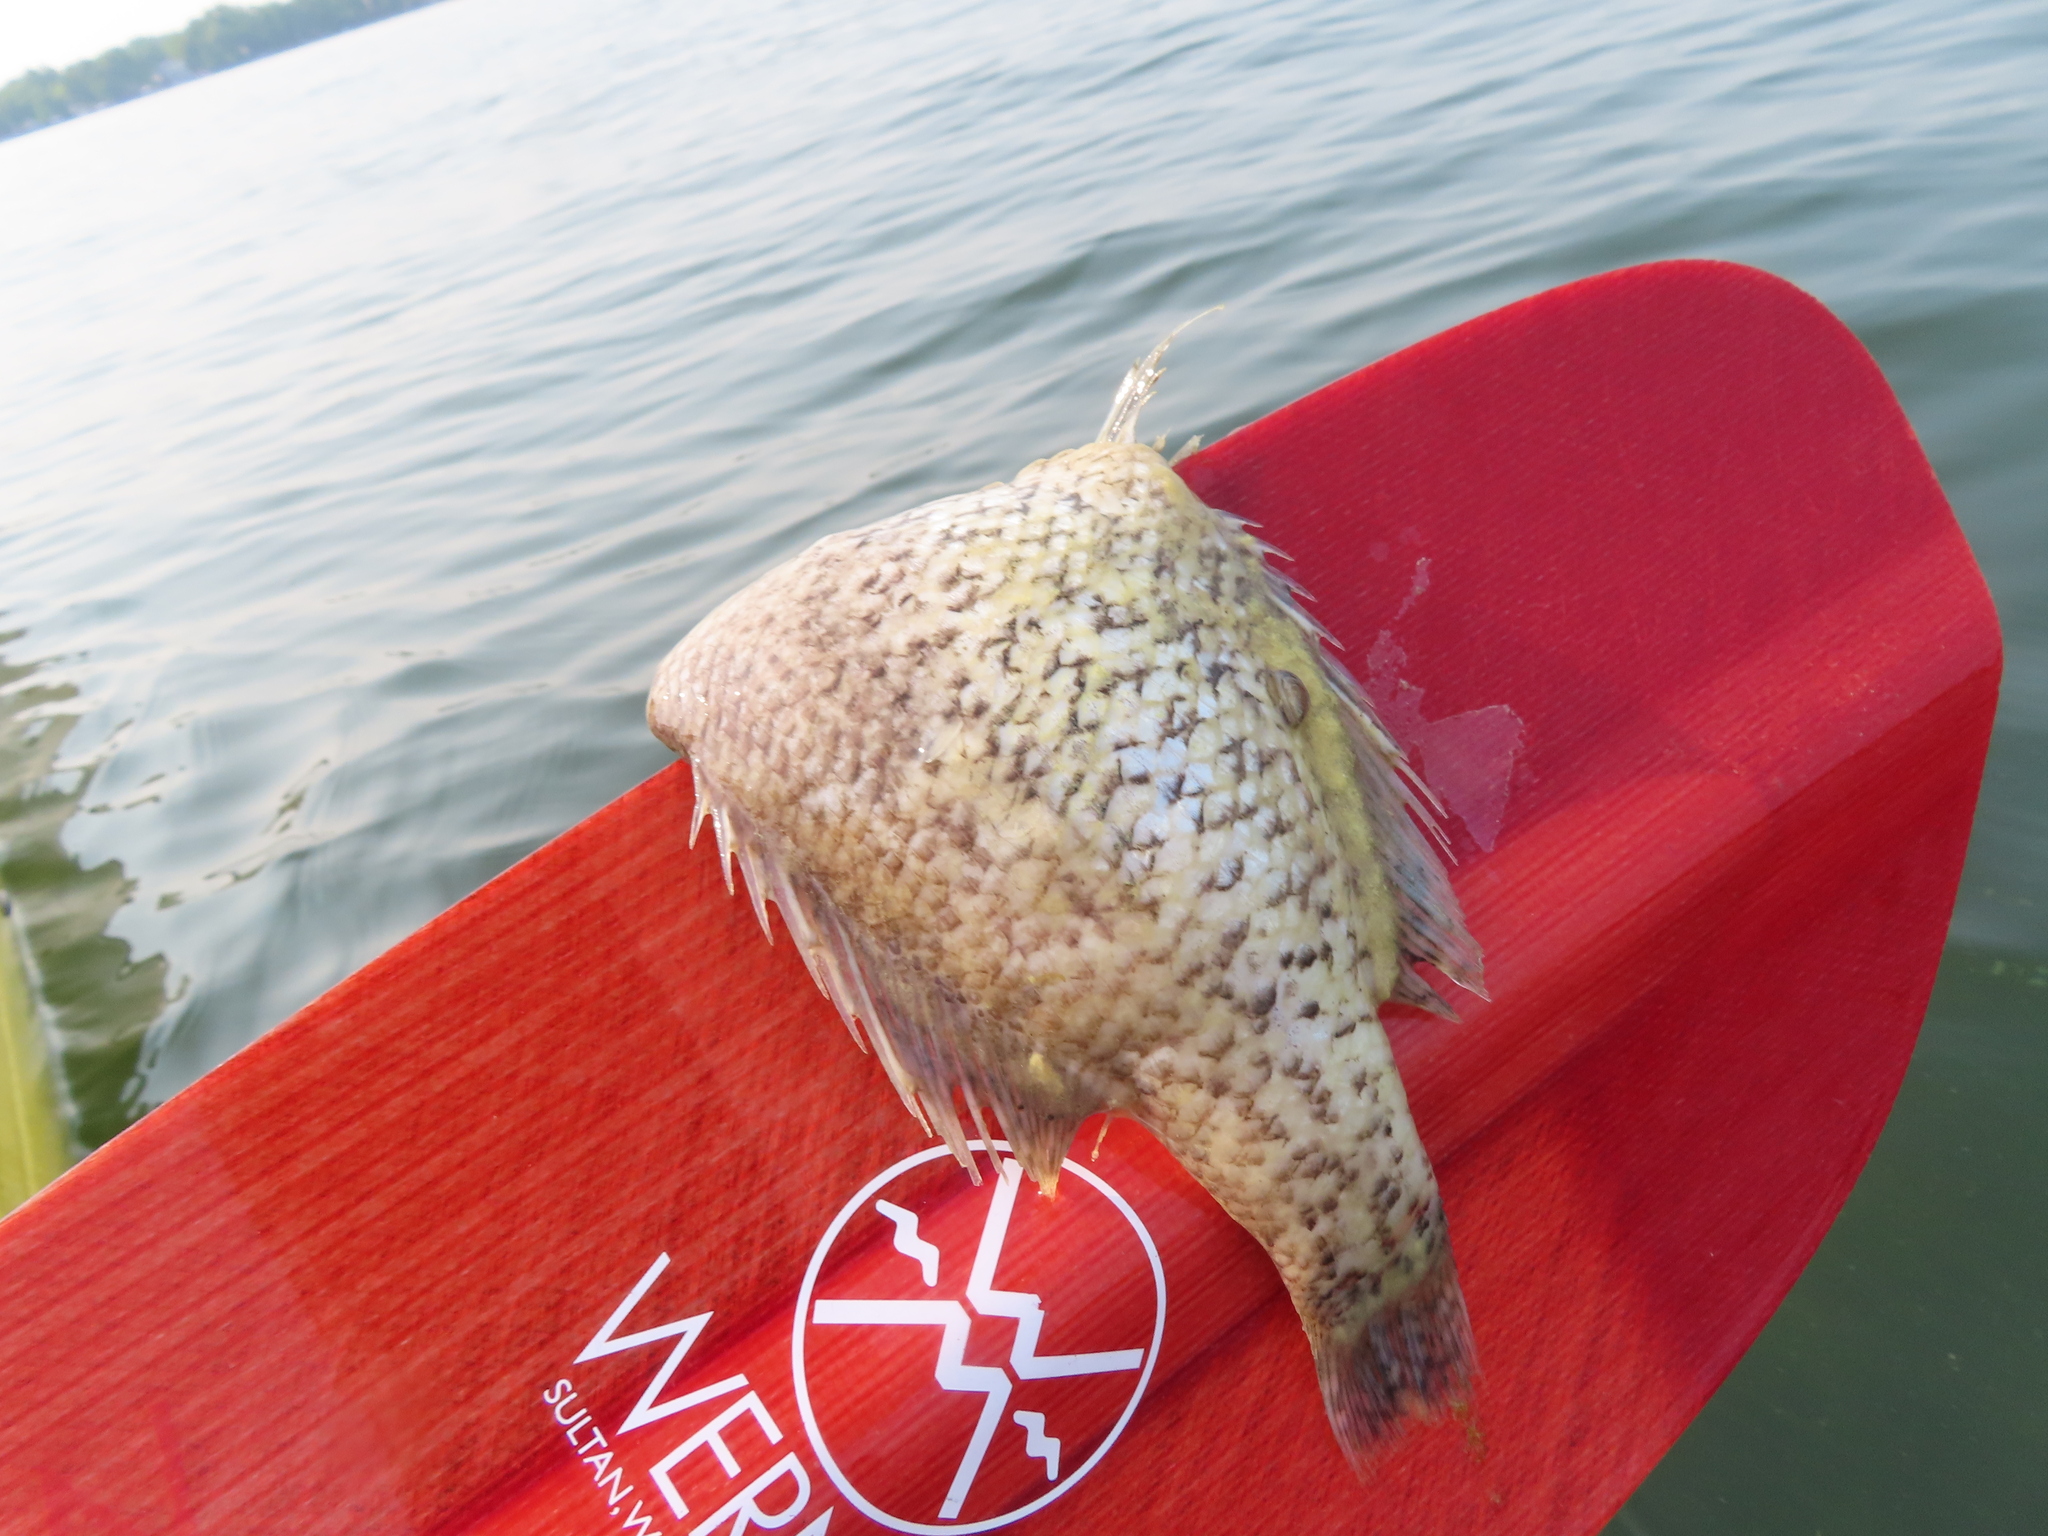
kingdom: Animalia
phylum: Chordata
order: Perciformes
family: Centrarchidae
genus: Pomoxis
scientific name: Pomoxis nigromaculatus
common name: Black crappie
